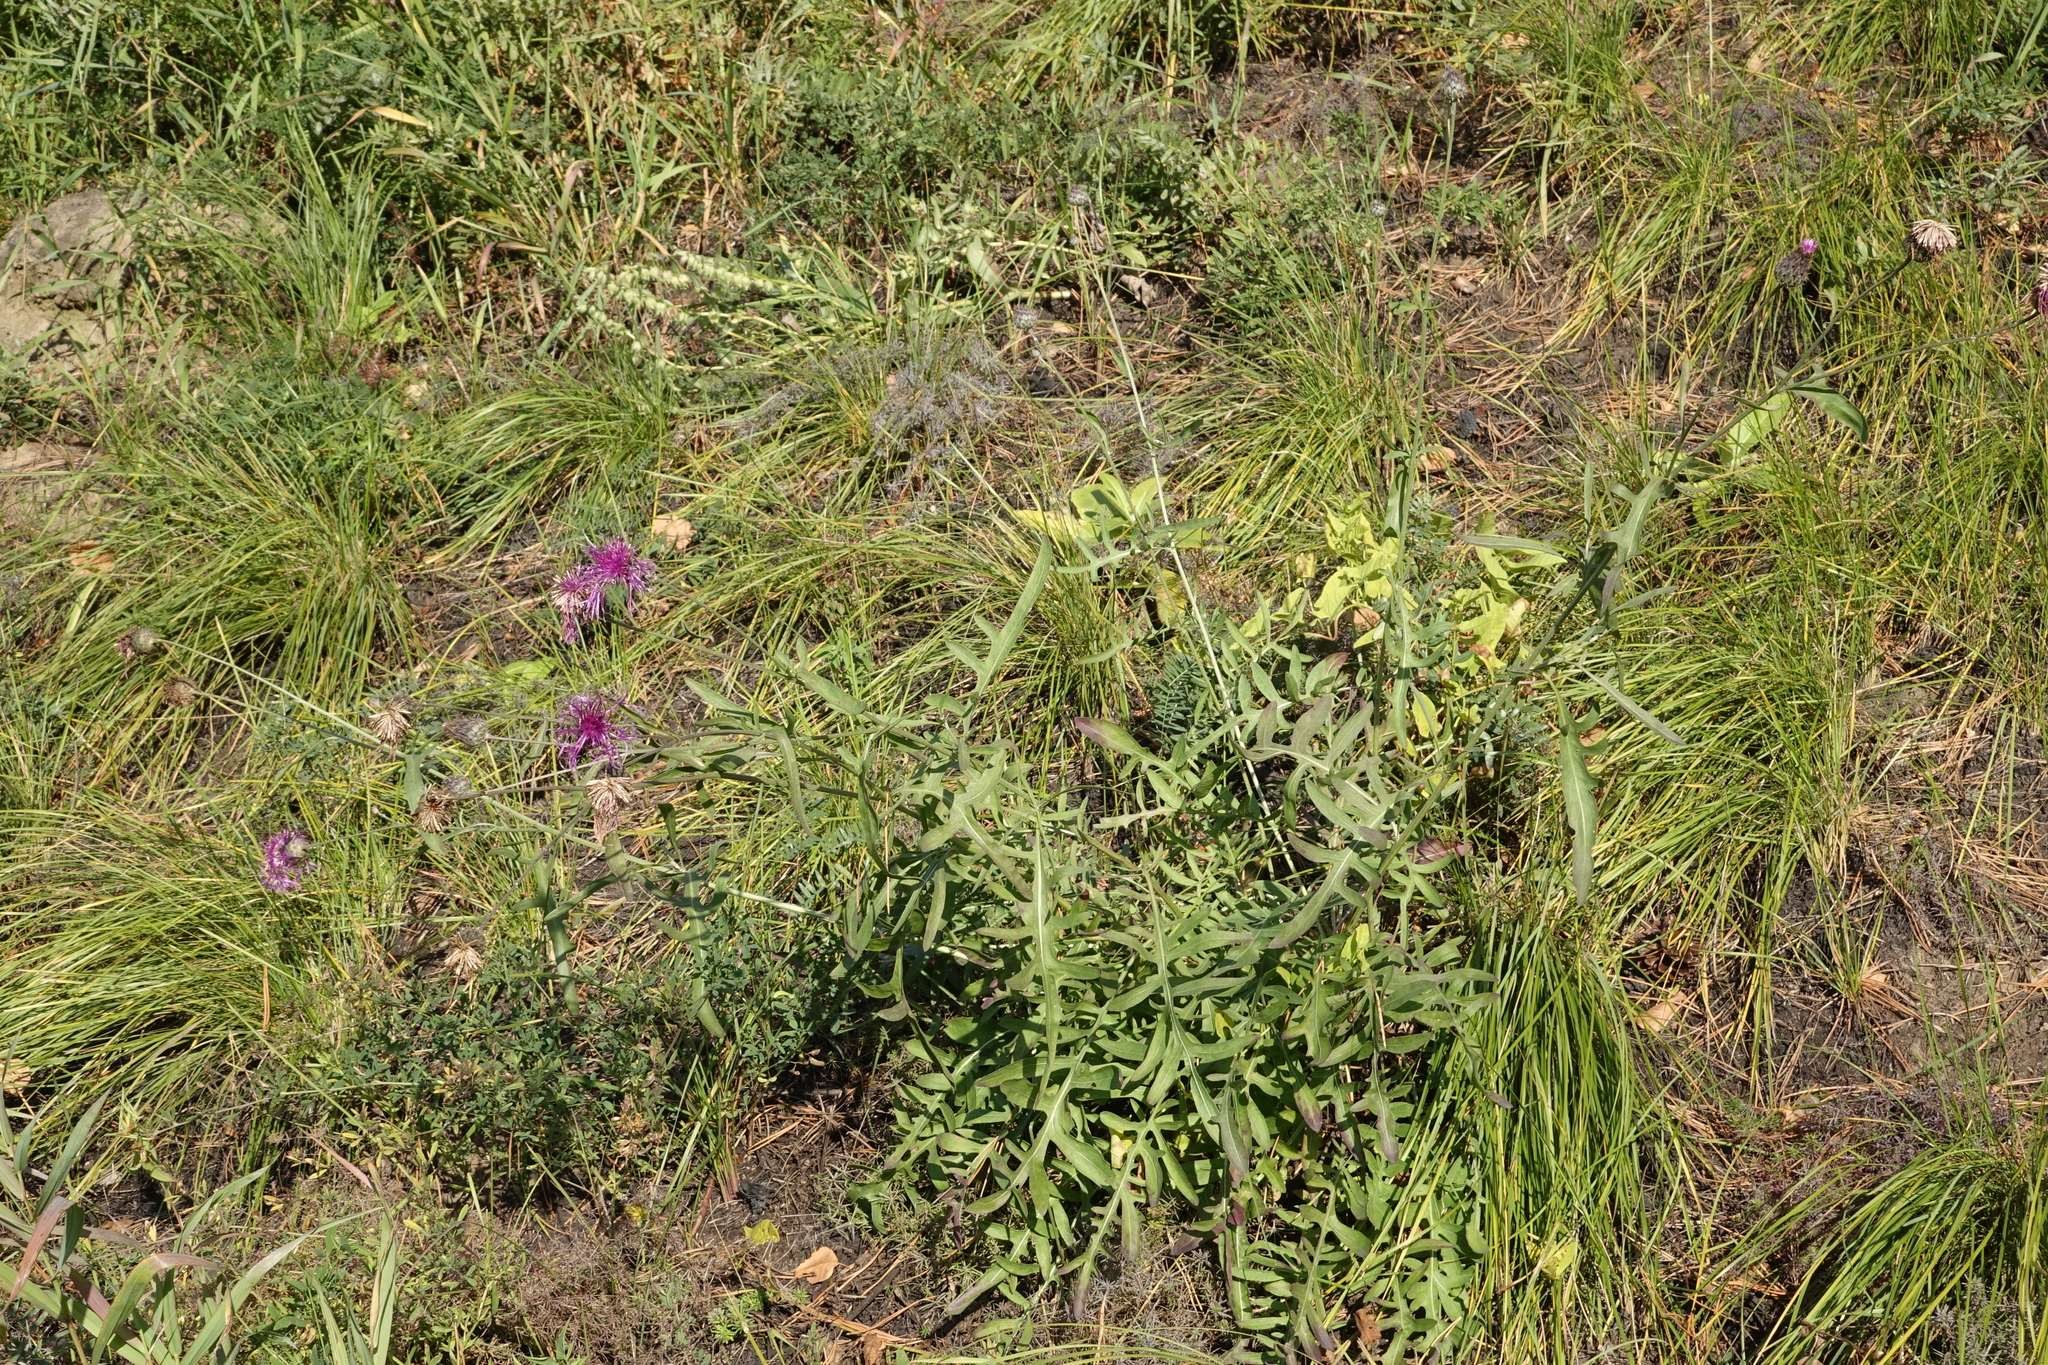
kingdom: Plantae
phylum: Tracheophyta
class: Magnoliopsida
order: Asterales
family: Asteraceae
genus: Centaurea
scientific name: Centaurea scabiosa
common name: Greater knapweed
